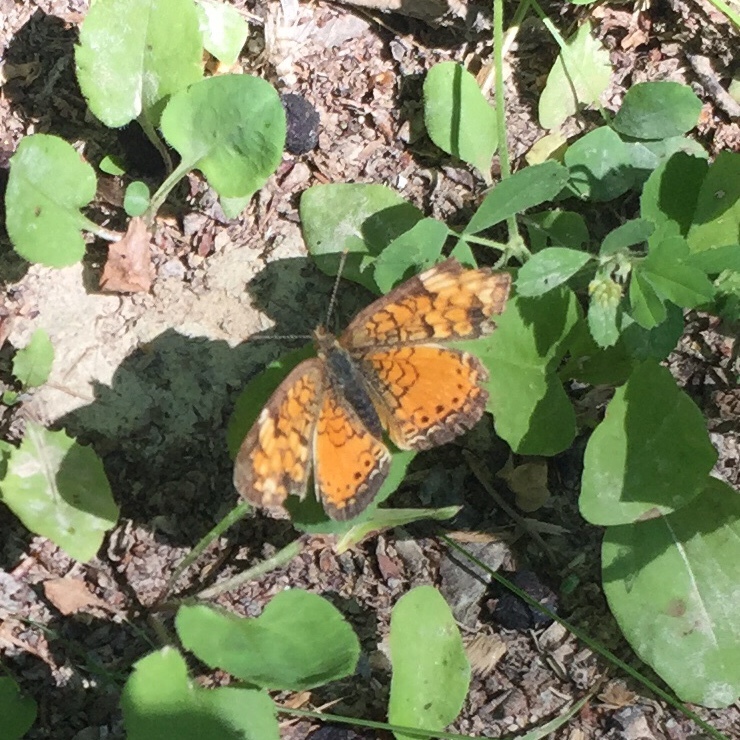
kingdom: Animalia
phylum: Arthropoda
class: Insecta
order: Lepidoptera
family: Nymphalidae
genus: Phyciodes
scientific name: Phyciodes tharos
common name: Pearl crescent
